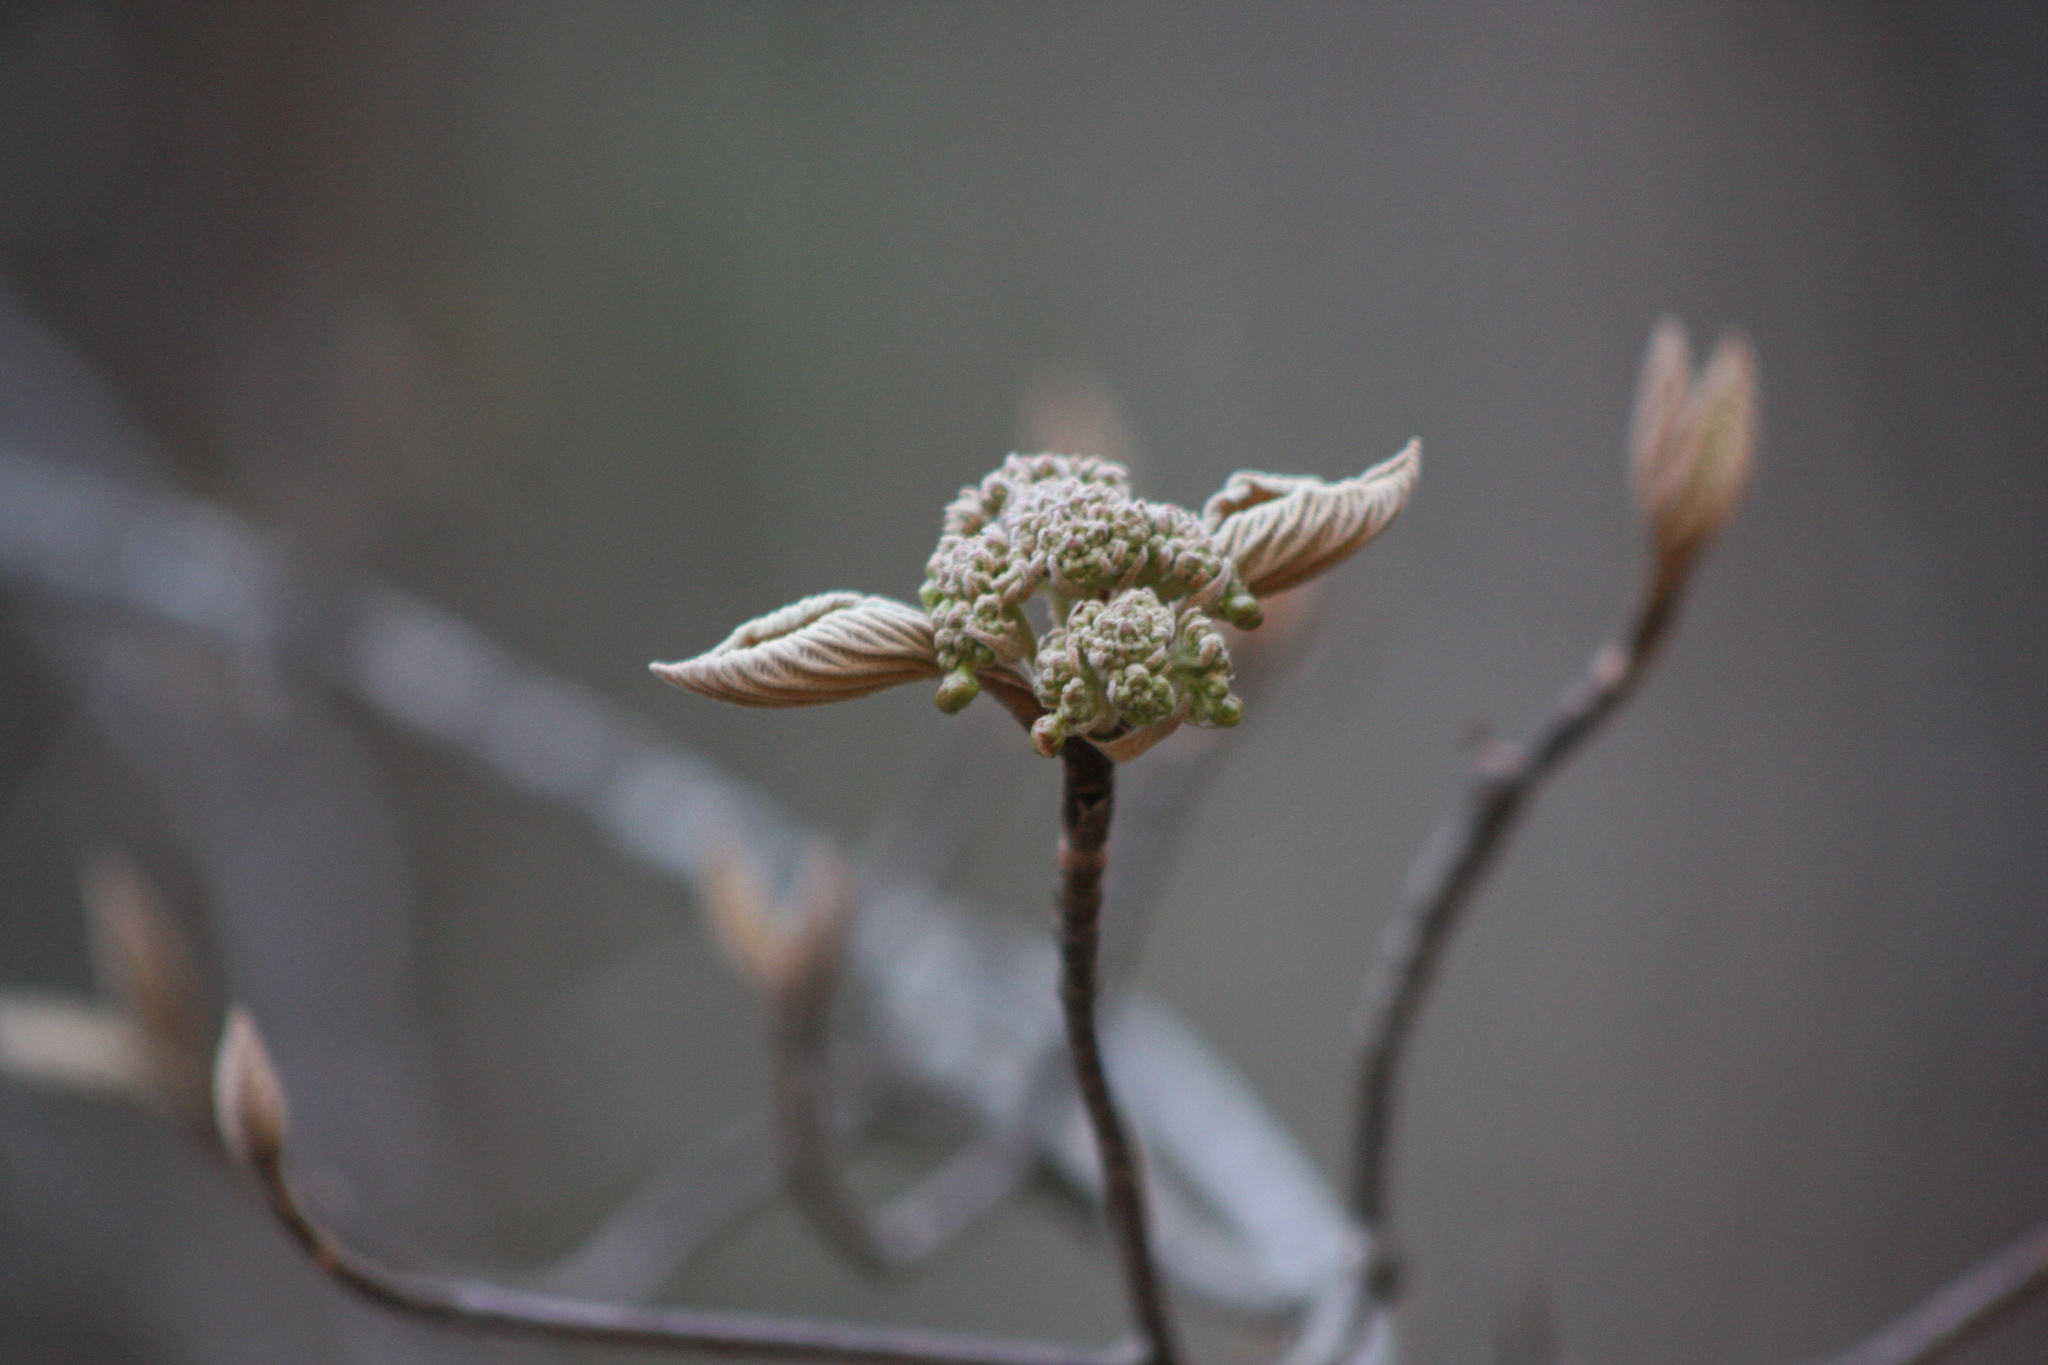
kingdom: Plantae
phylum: Tracheophyta
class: Magnoliopsida
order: Dipsacales
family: Viburnaceae
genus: Viburnum
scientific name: Viburnum lantanoides
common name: Hobblebush
